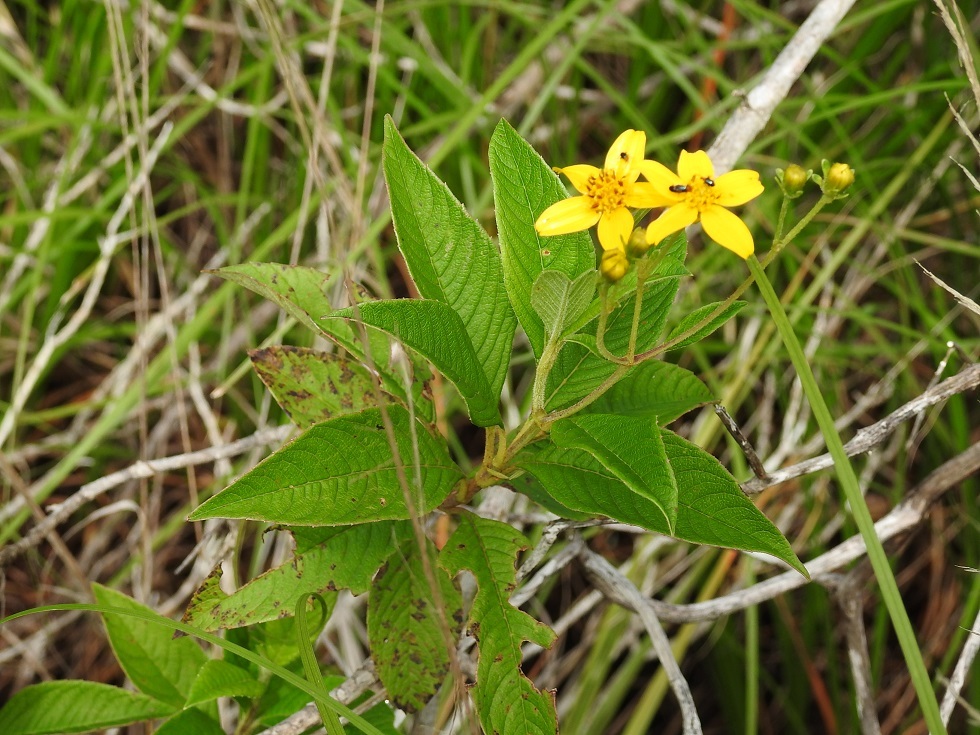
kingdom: Plantae
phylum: Tracheophyta
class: Magnoliopsida
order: Asterales
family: Asteraceae
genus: Electranthera
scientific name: Electranthera mutica
